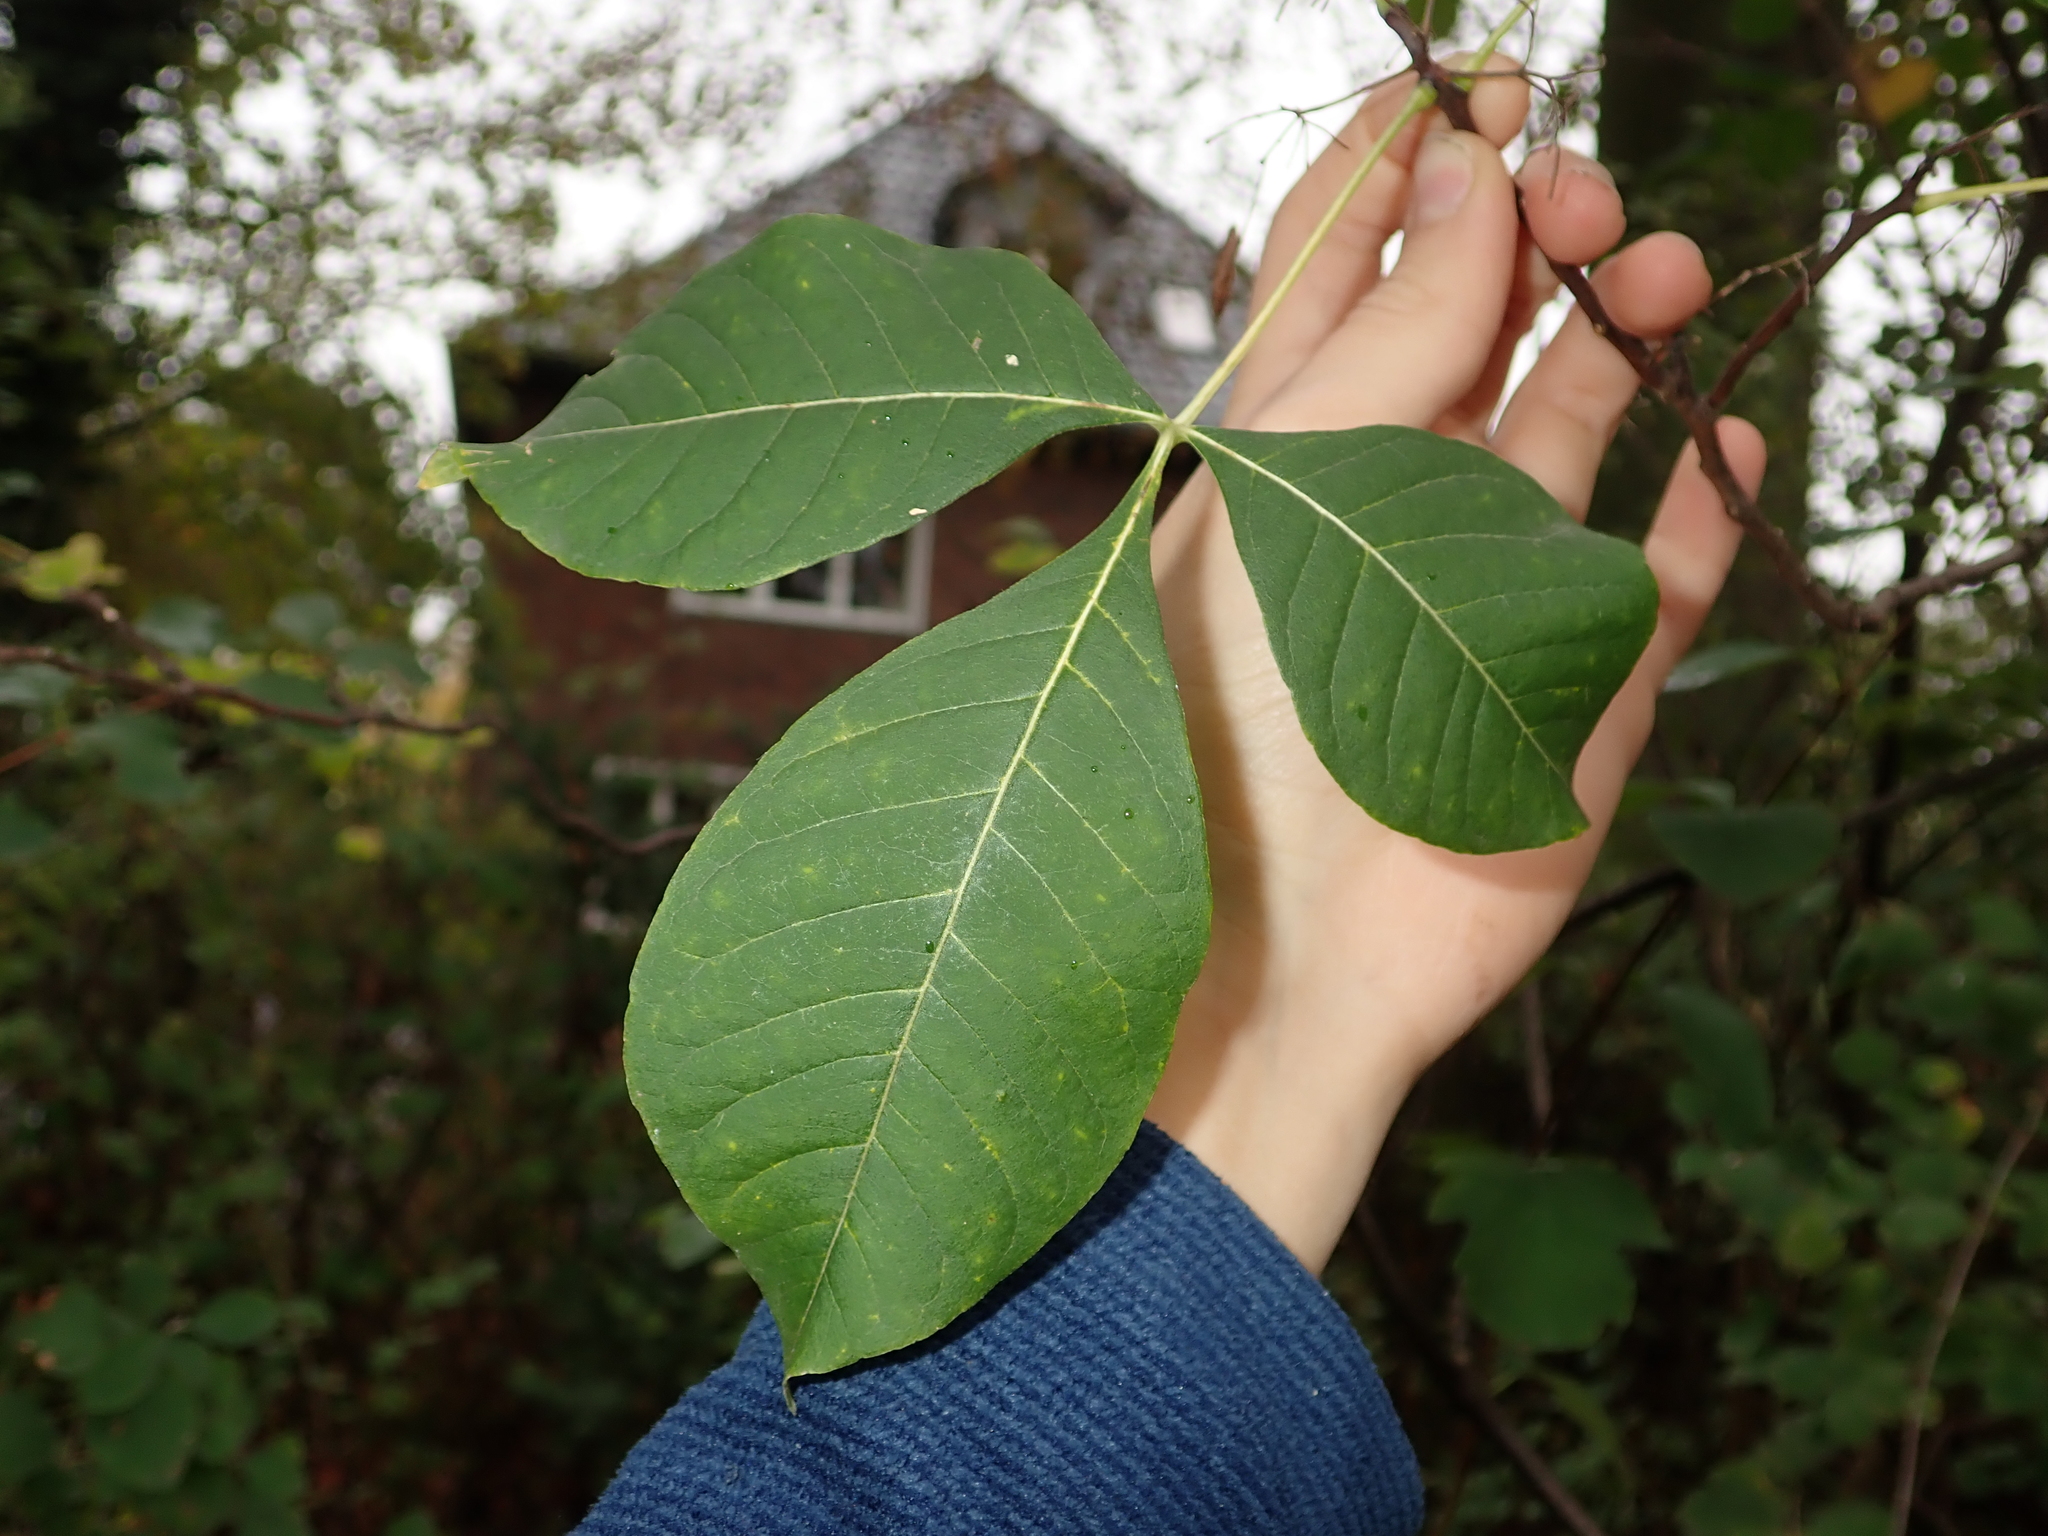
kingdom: Plantae
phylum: Tracheophyta
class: Magnoliopsida
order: Sapindales
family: Rutaceae
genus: Ptelea
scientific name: Ptelea trifoliata
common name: Common hop-tree
